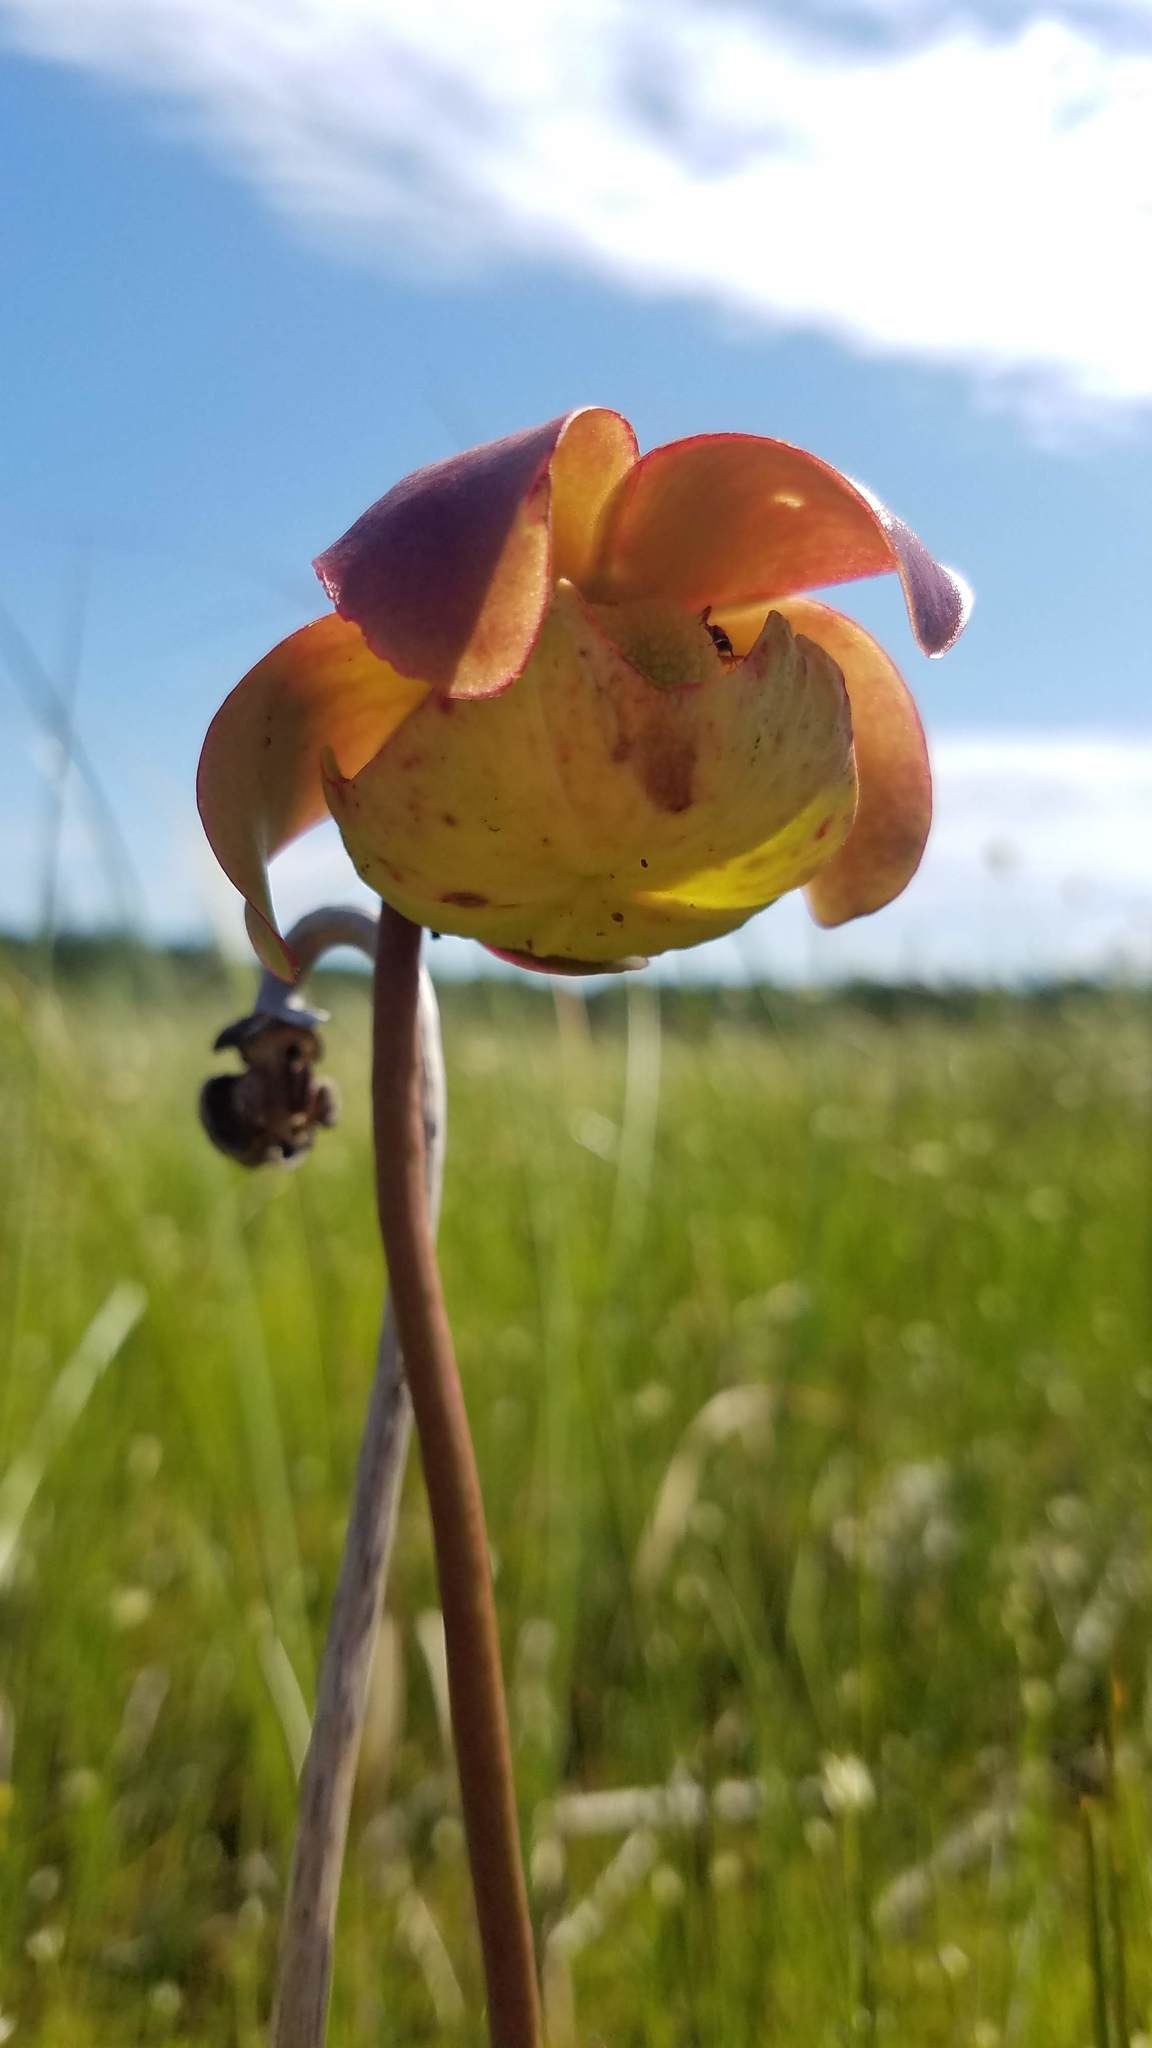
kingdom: Plantae
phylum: Tracheophyta
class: Magnoliopsida
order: Ericales
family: Sarraceniaceae
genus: Sarracenia
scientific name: Sarracenia purpurea
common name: Pitcherplant
